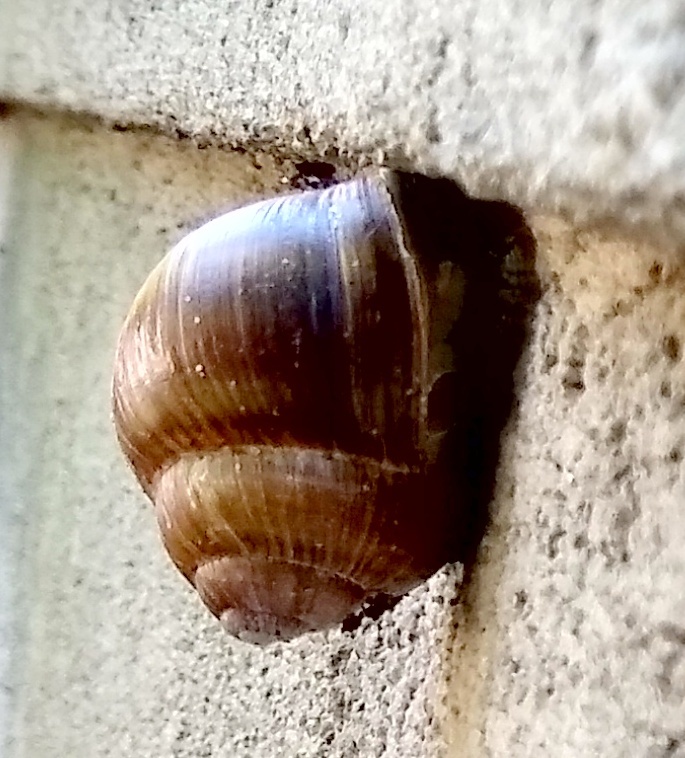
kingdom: Animalia
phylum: Mollusca
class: Gastropoda
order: Stylommatophora
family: Helicidae
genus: Helix
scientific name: Helix pomatia
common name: Roman snail
